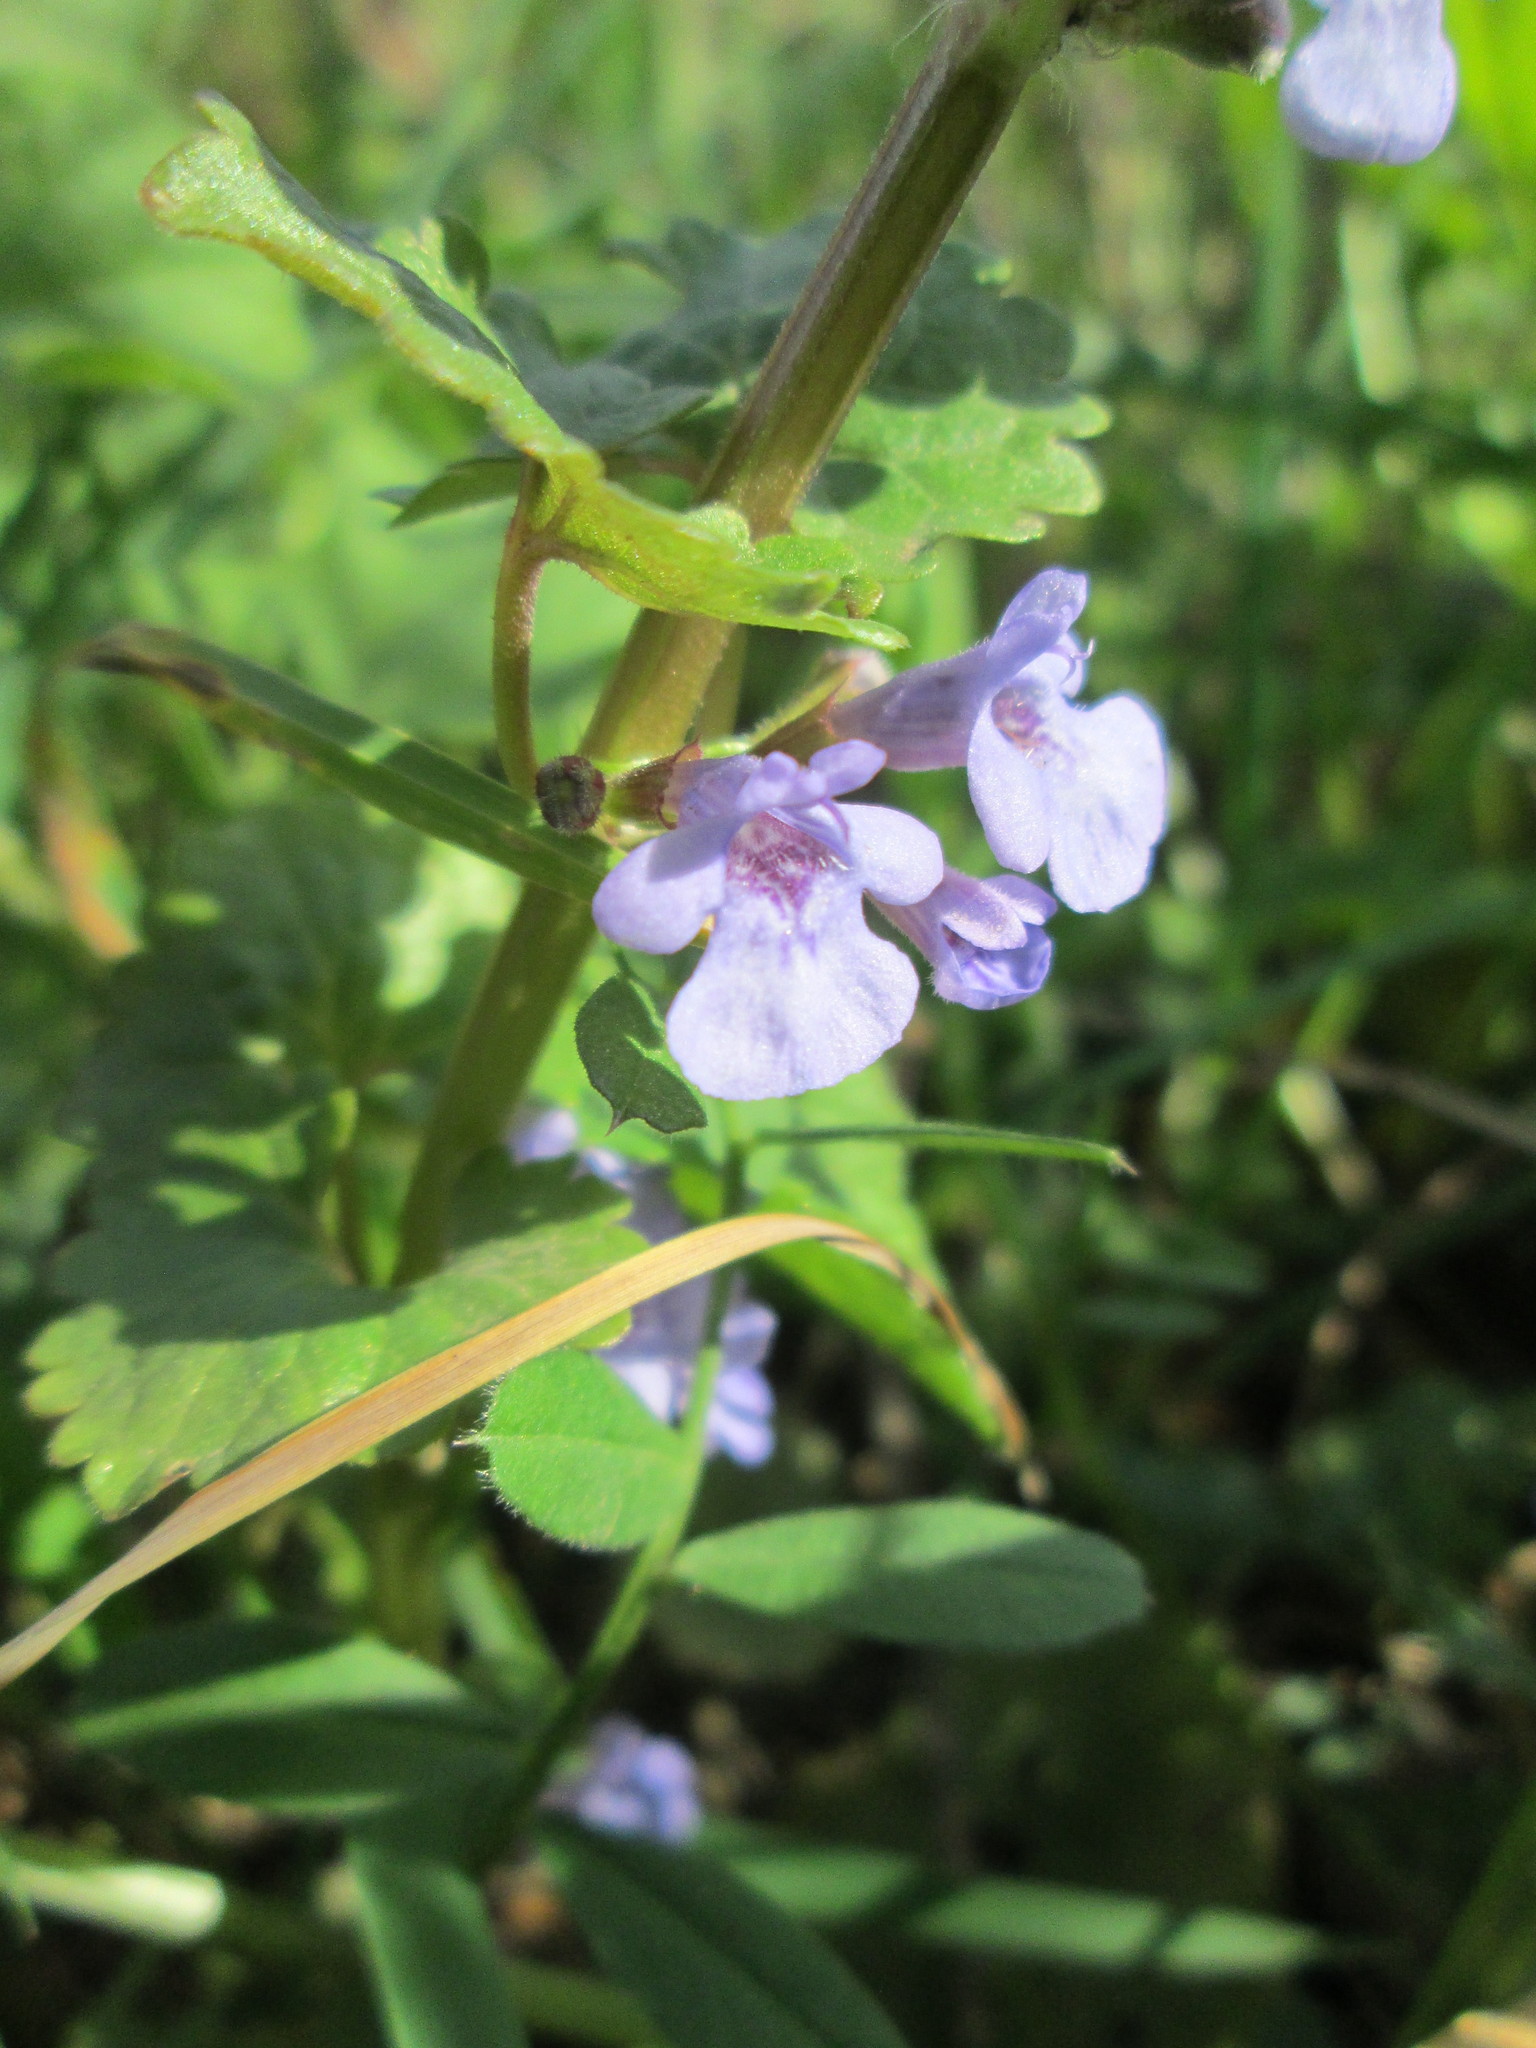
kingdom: Plantae
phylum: Tracheophyta
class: Magnoliopsida
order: Lamiales
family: Lamiaceae
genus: Glechoma
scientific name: Glechoma hederacea
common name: Ground ivy
